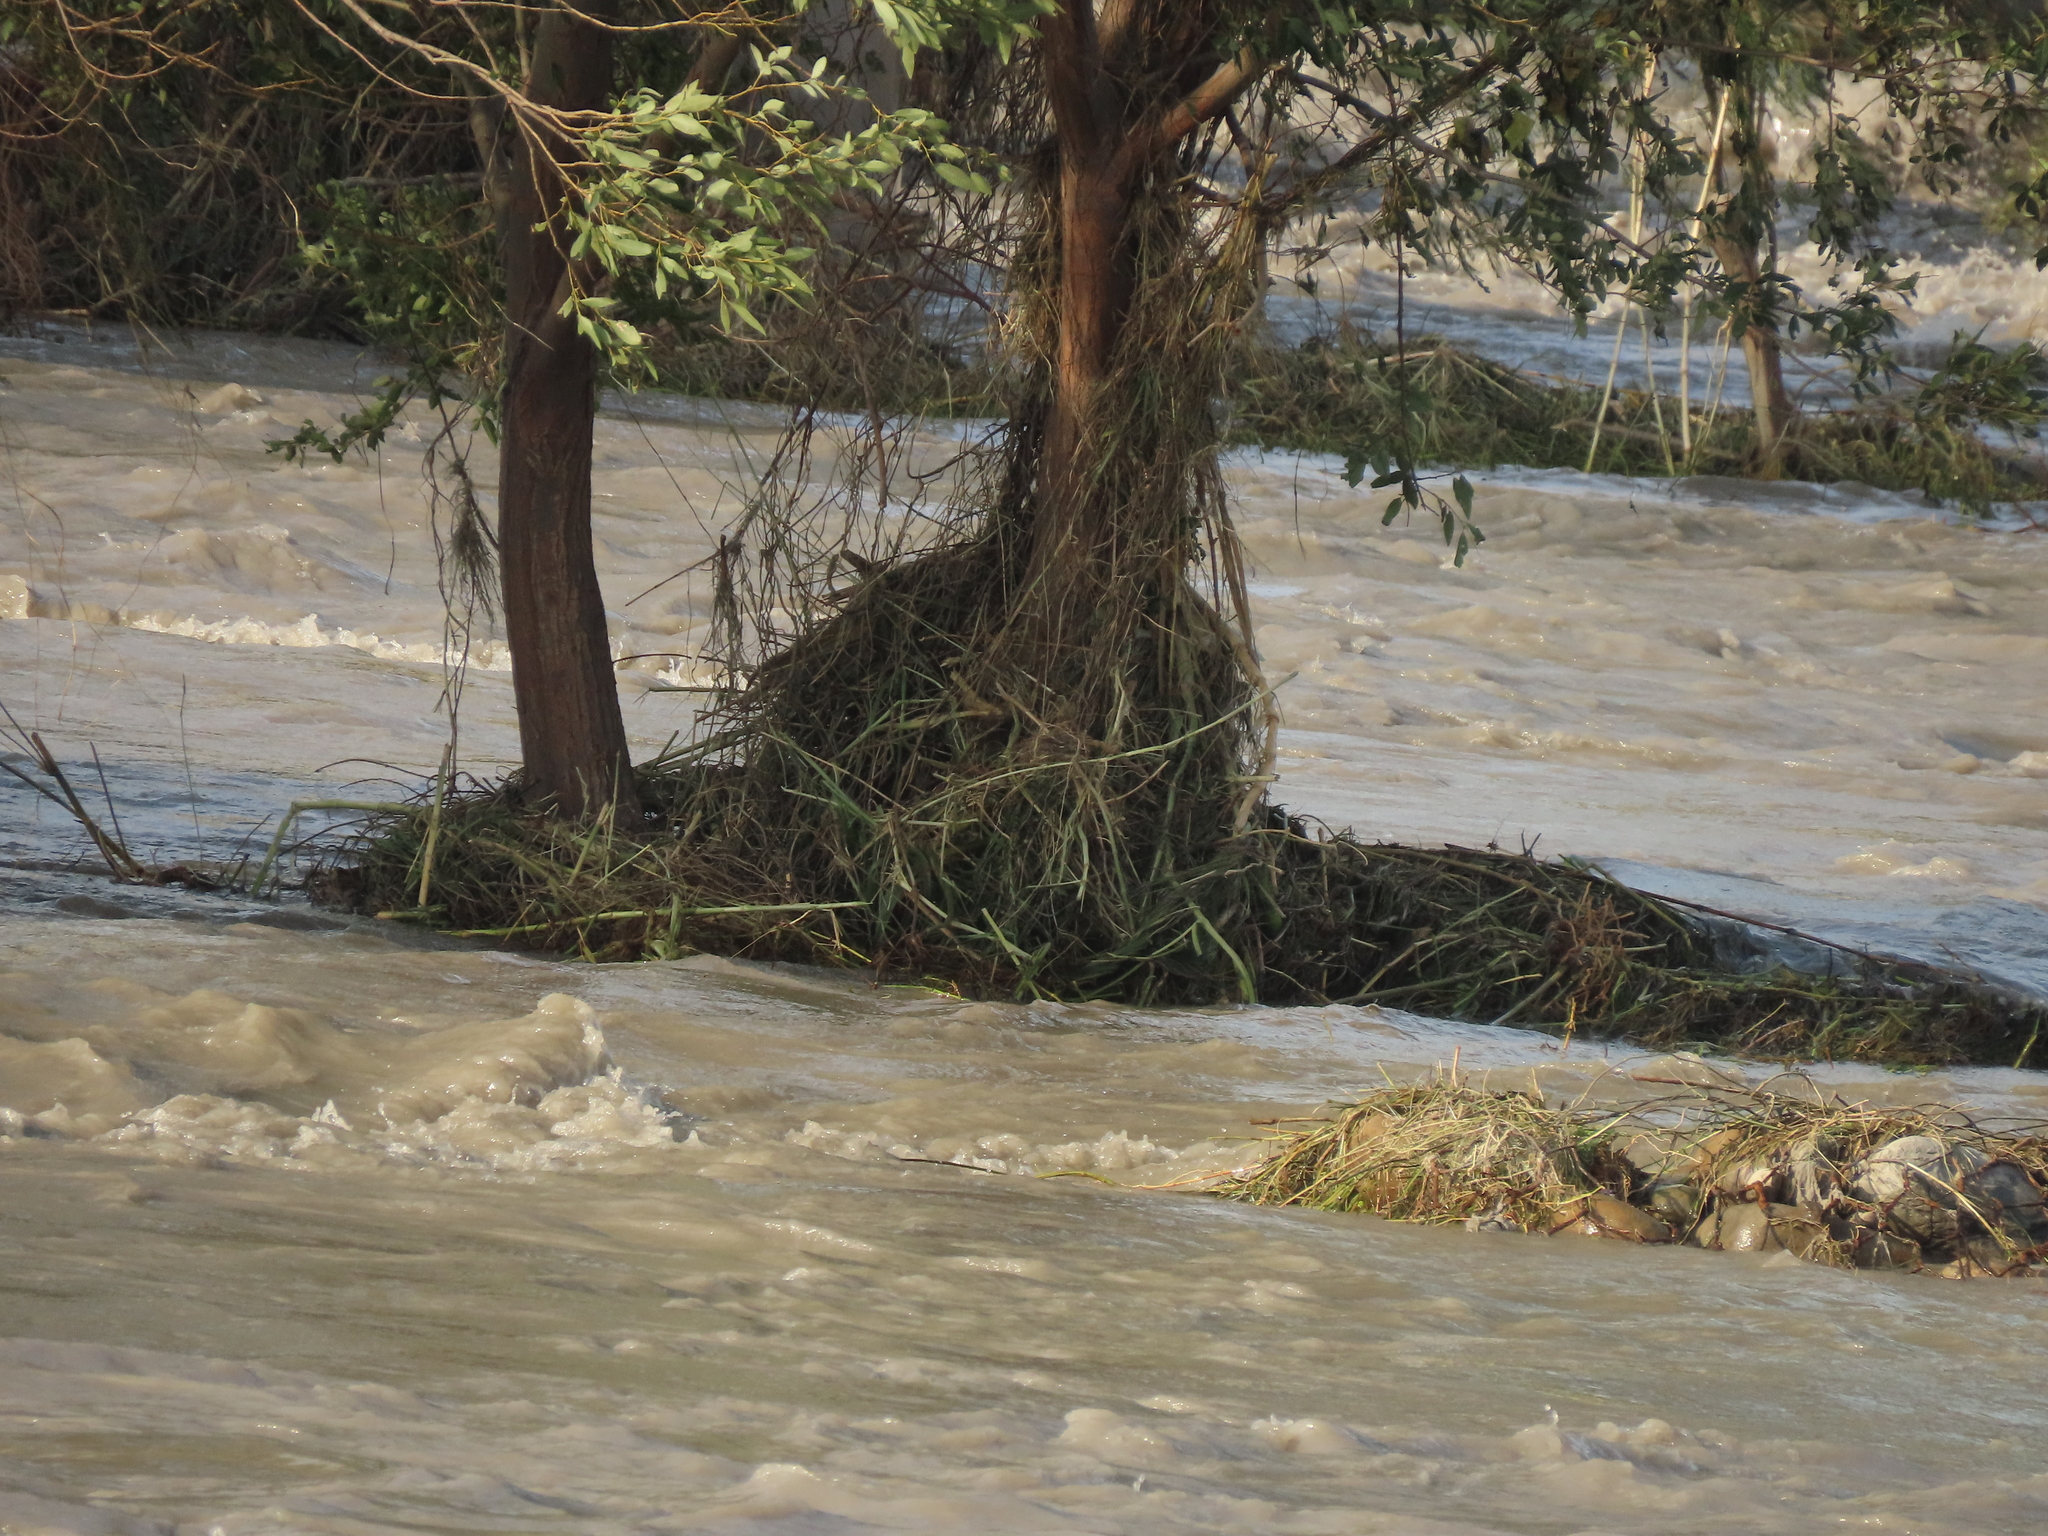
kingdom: Plantae
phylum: Tracheophyta
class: Magnoliopsida
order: Malpighiales
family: Salicaceae
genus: Salix
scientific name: Salix mesnyi
